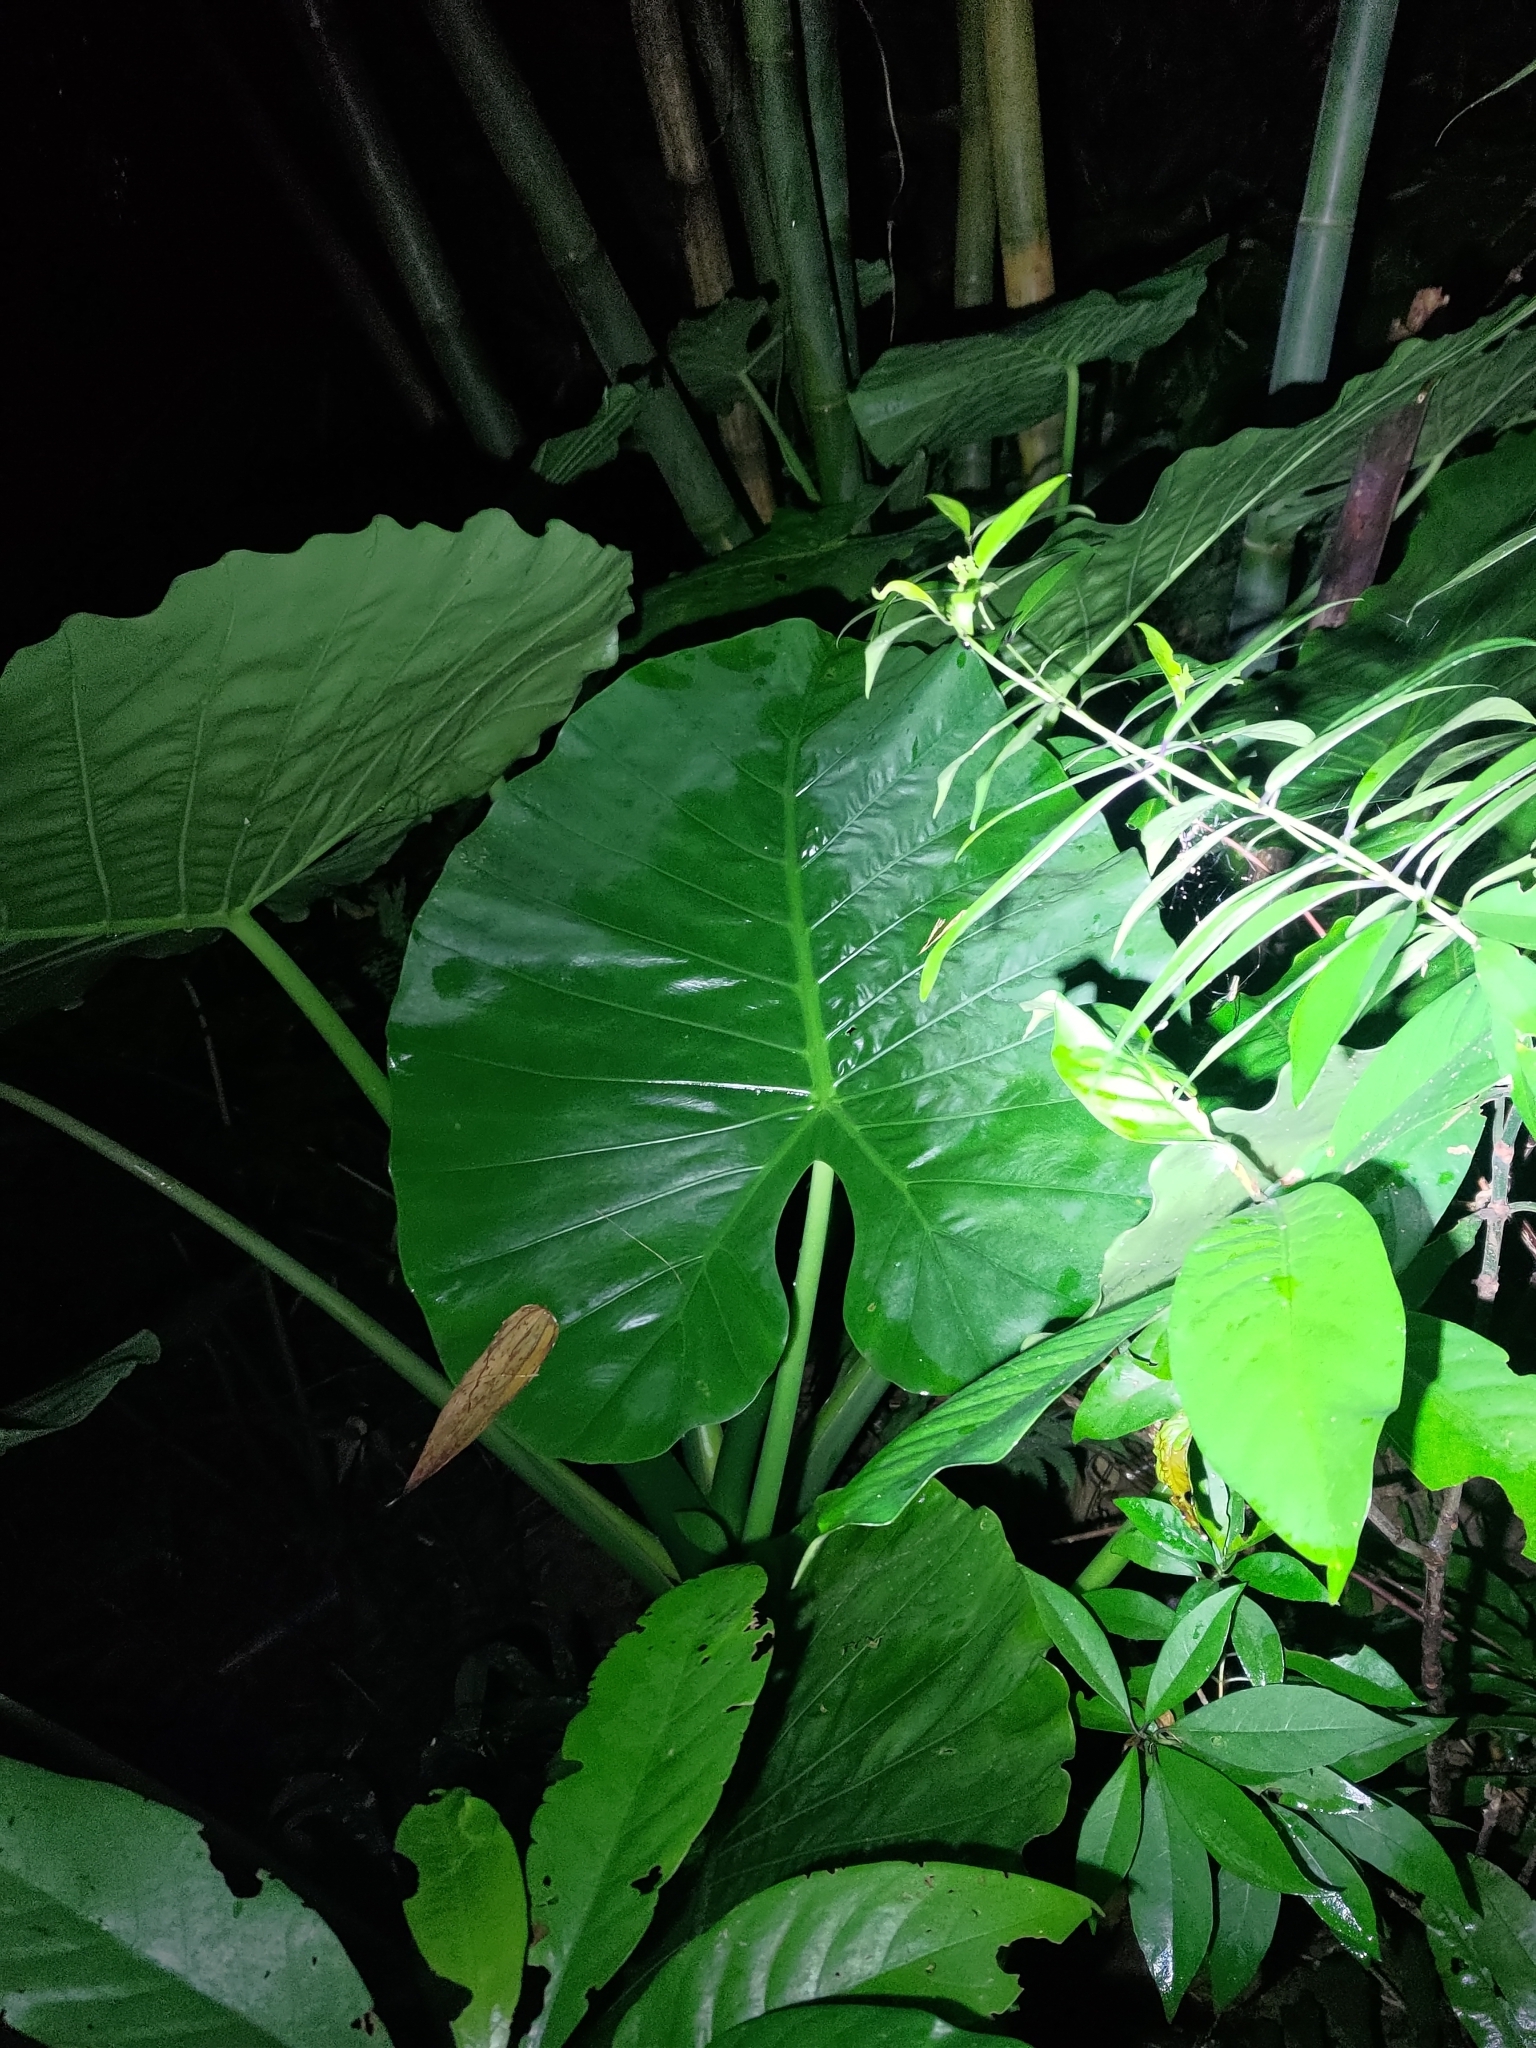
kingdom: Plantae
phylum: Tracheophyta
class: Liliopsida
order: Alismatales
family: Araceae
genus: Alocasia
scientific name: Alocasia odora
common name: Asian taro
